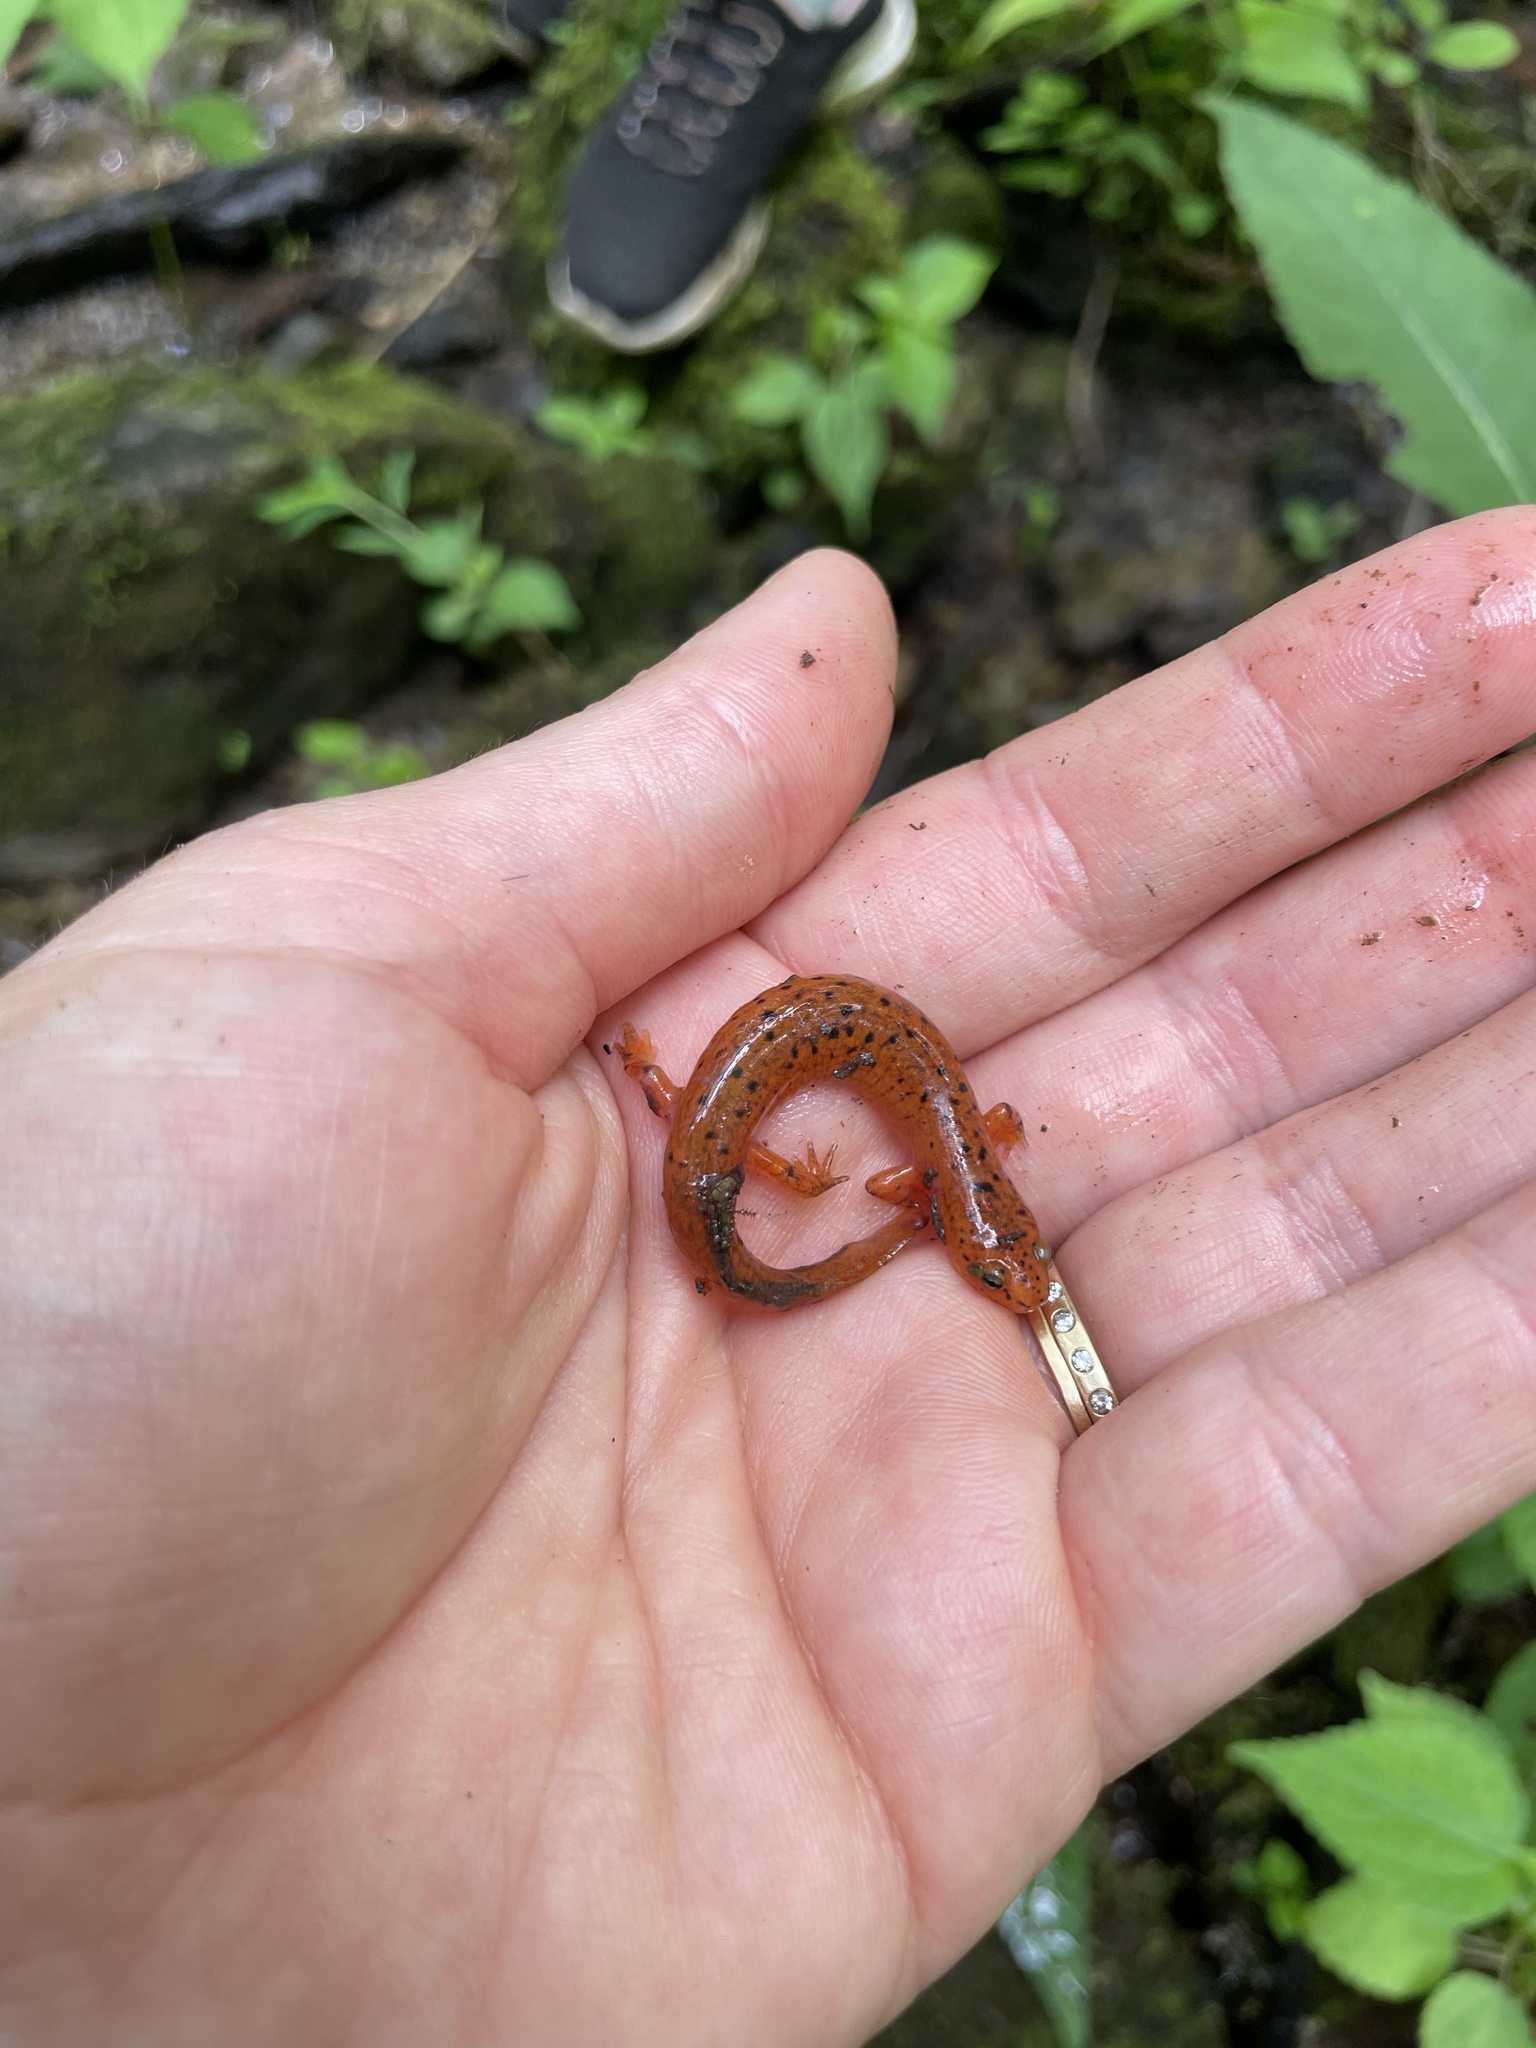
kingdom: Animalia
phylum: Chordata
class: Amphibia
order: Caudata
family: Plethodontidae
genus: Pseudotriton
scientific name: Pseudotriton ruber
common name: Red salamander
